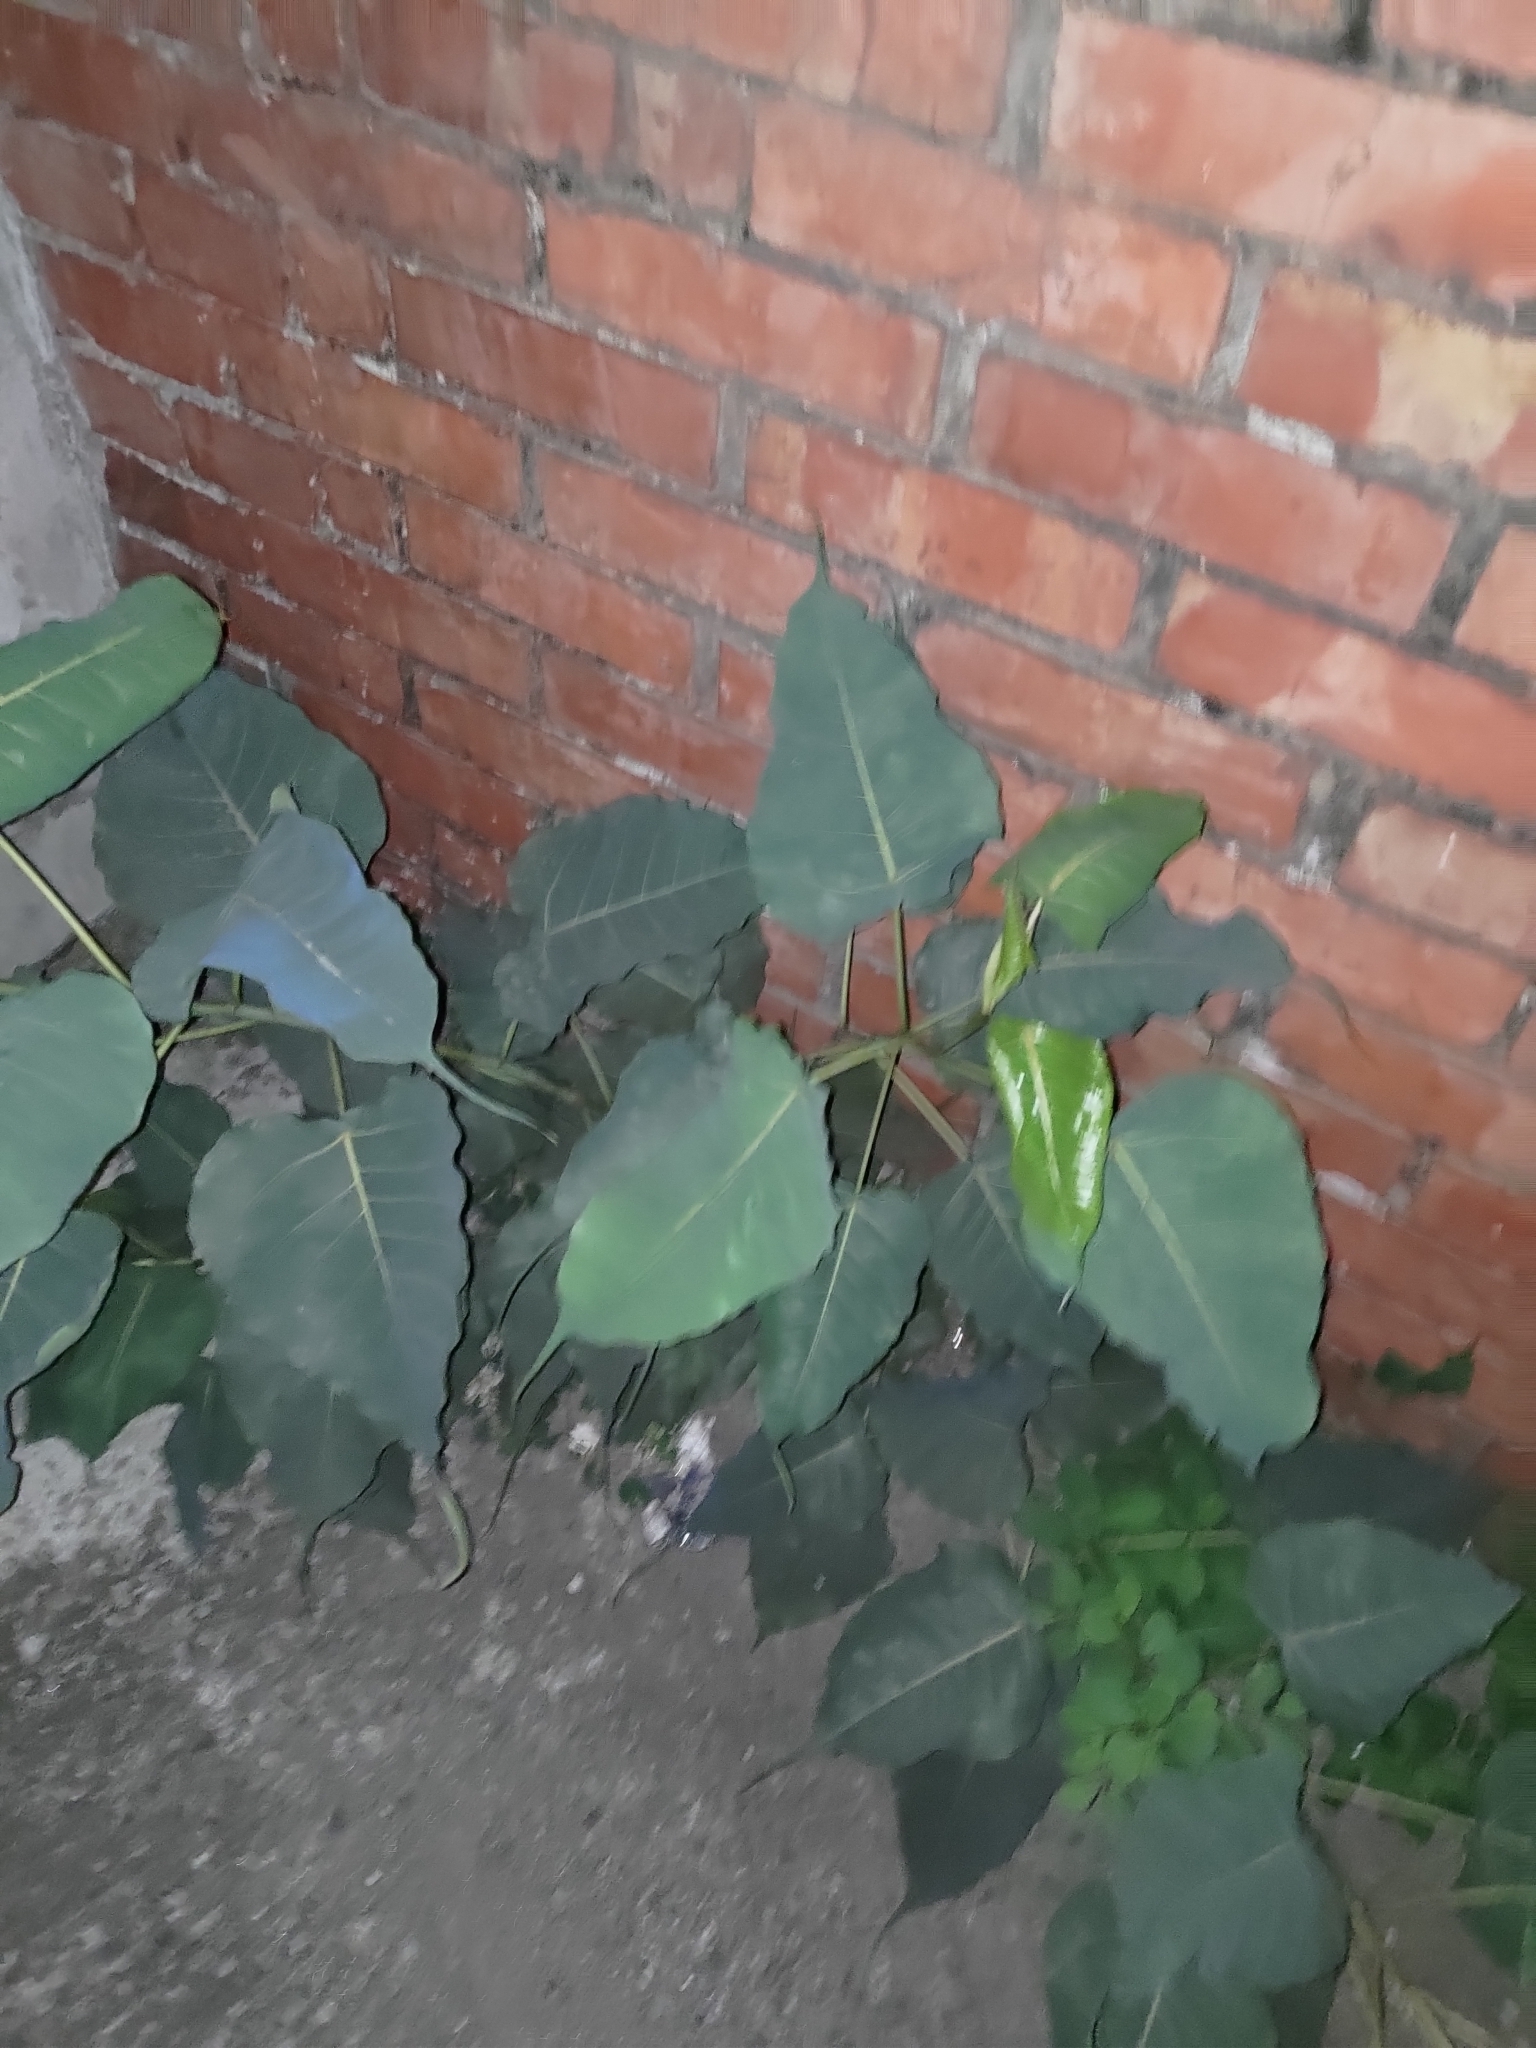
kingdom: Plantae
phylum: Tracheophyta
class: Magnoliopsida
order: Rosales
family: Moraceae
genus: Ficus
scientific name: Ficus religiosa
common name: Bodhi tree
